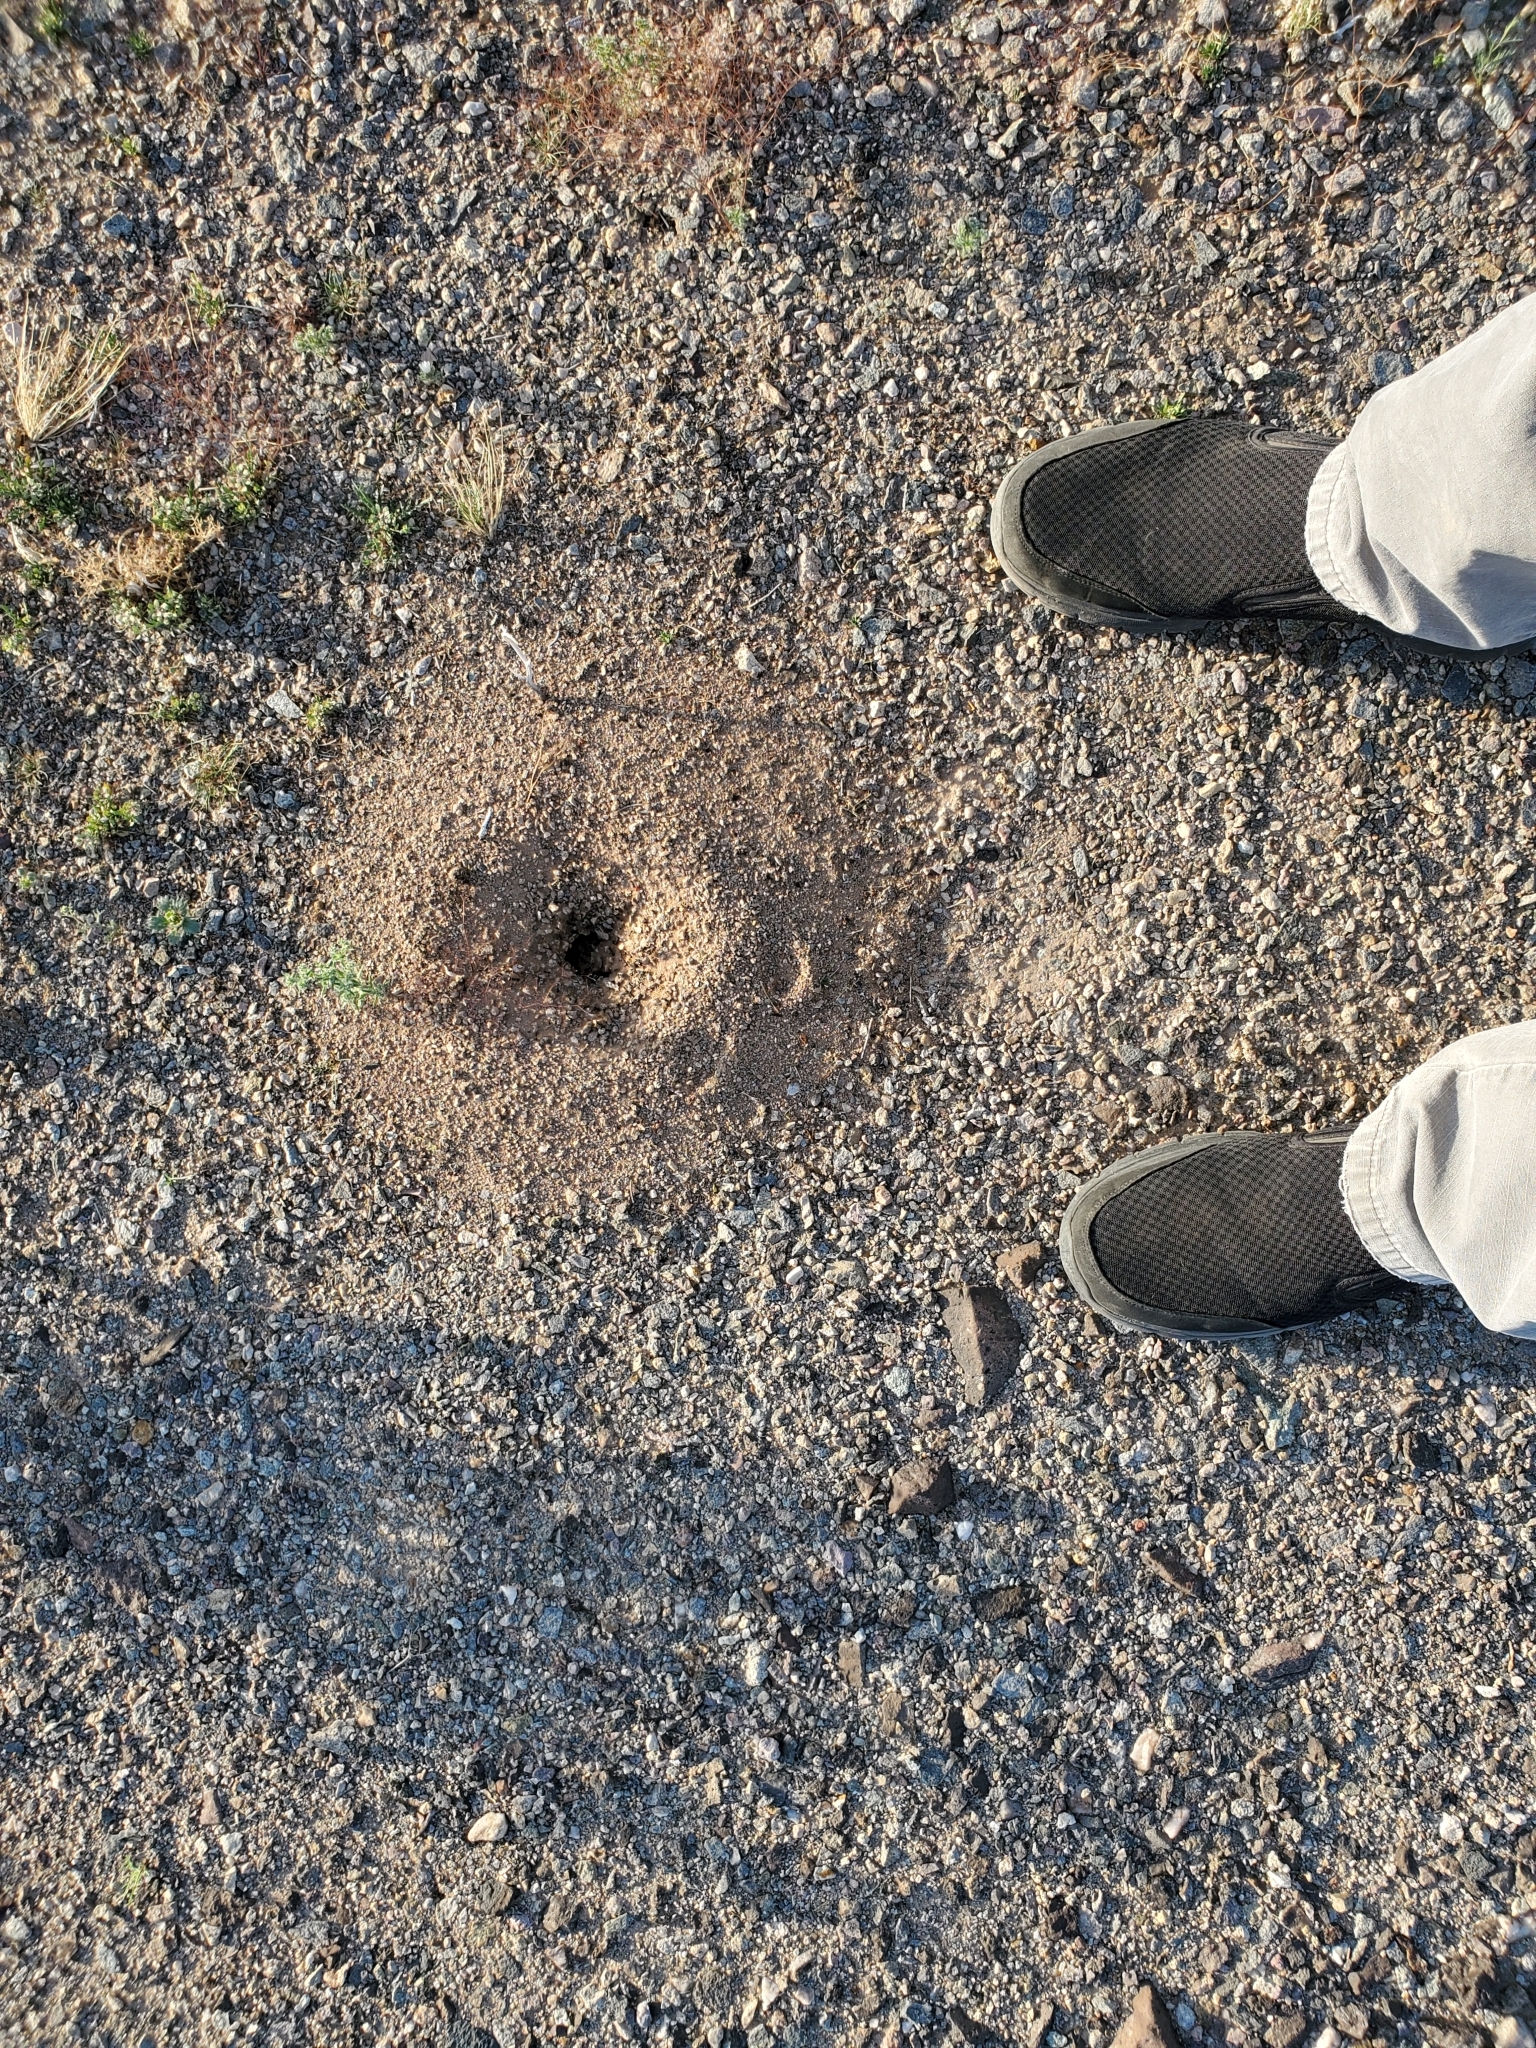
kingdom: Animalia
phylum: Arthropoda
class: Insecta
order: Hymenoptera
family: Formicidae
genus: Messor
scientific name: Messor pergandei
